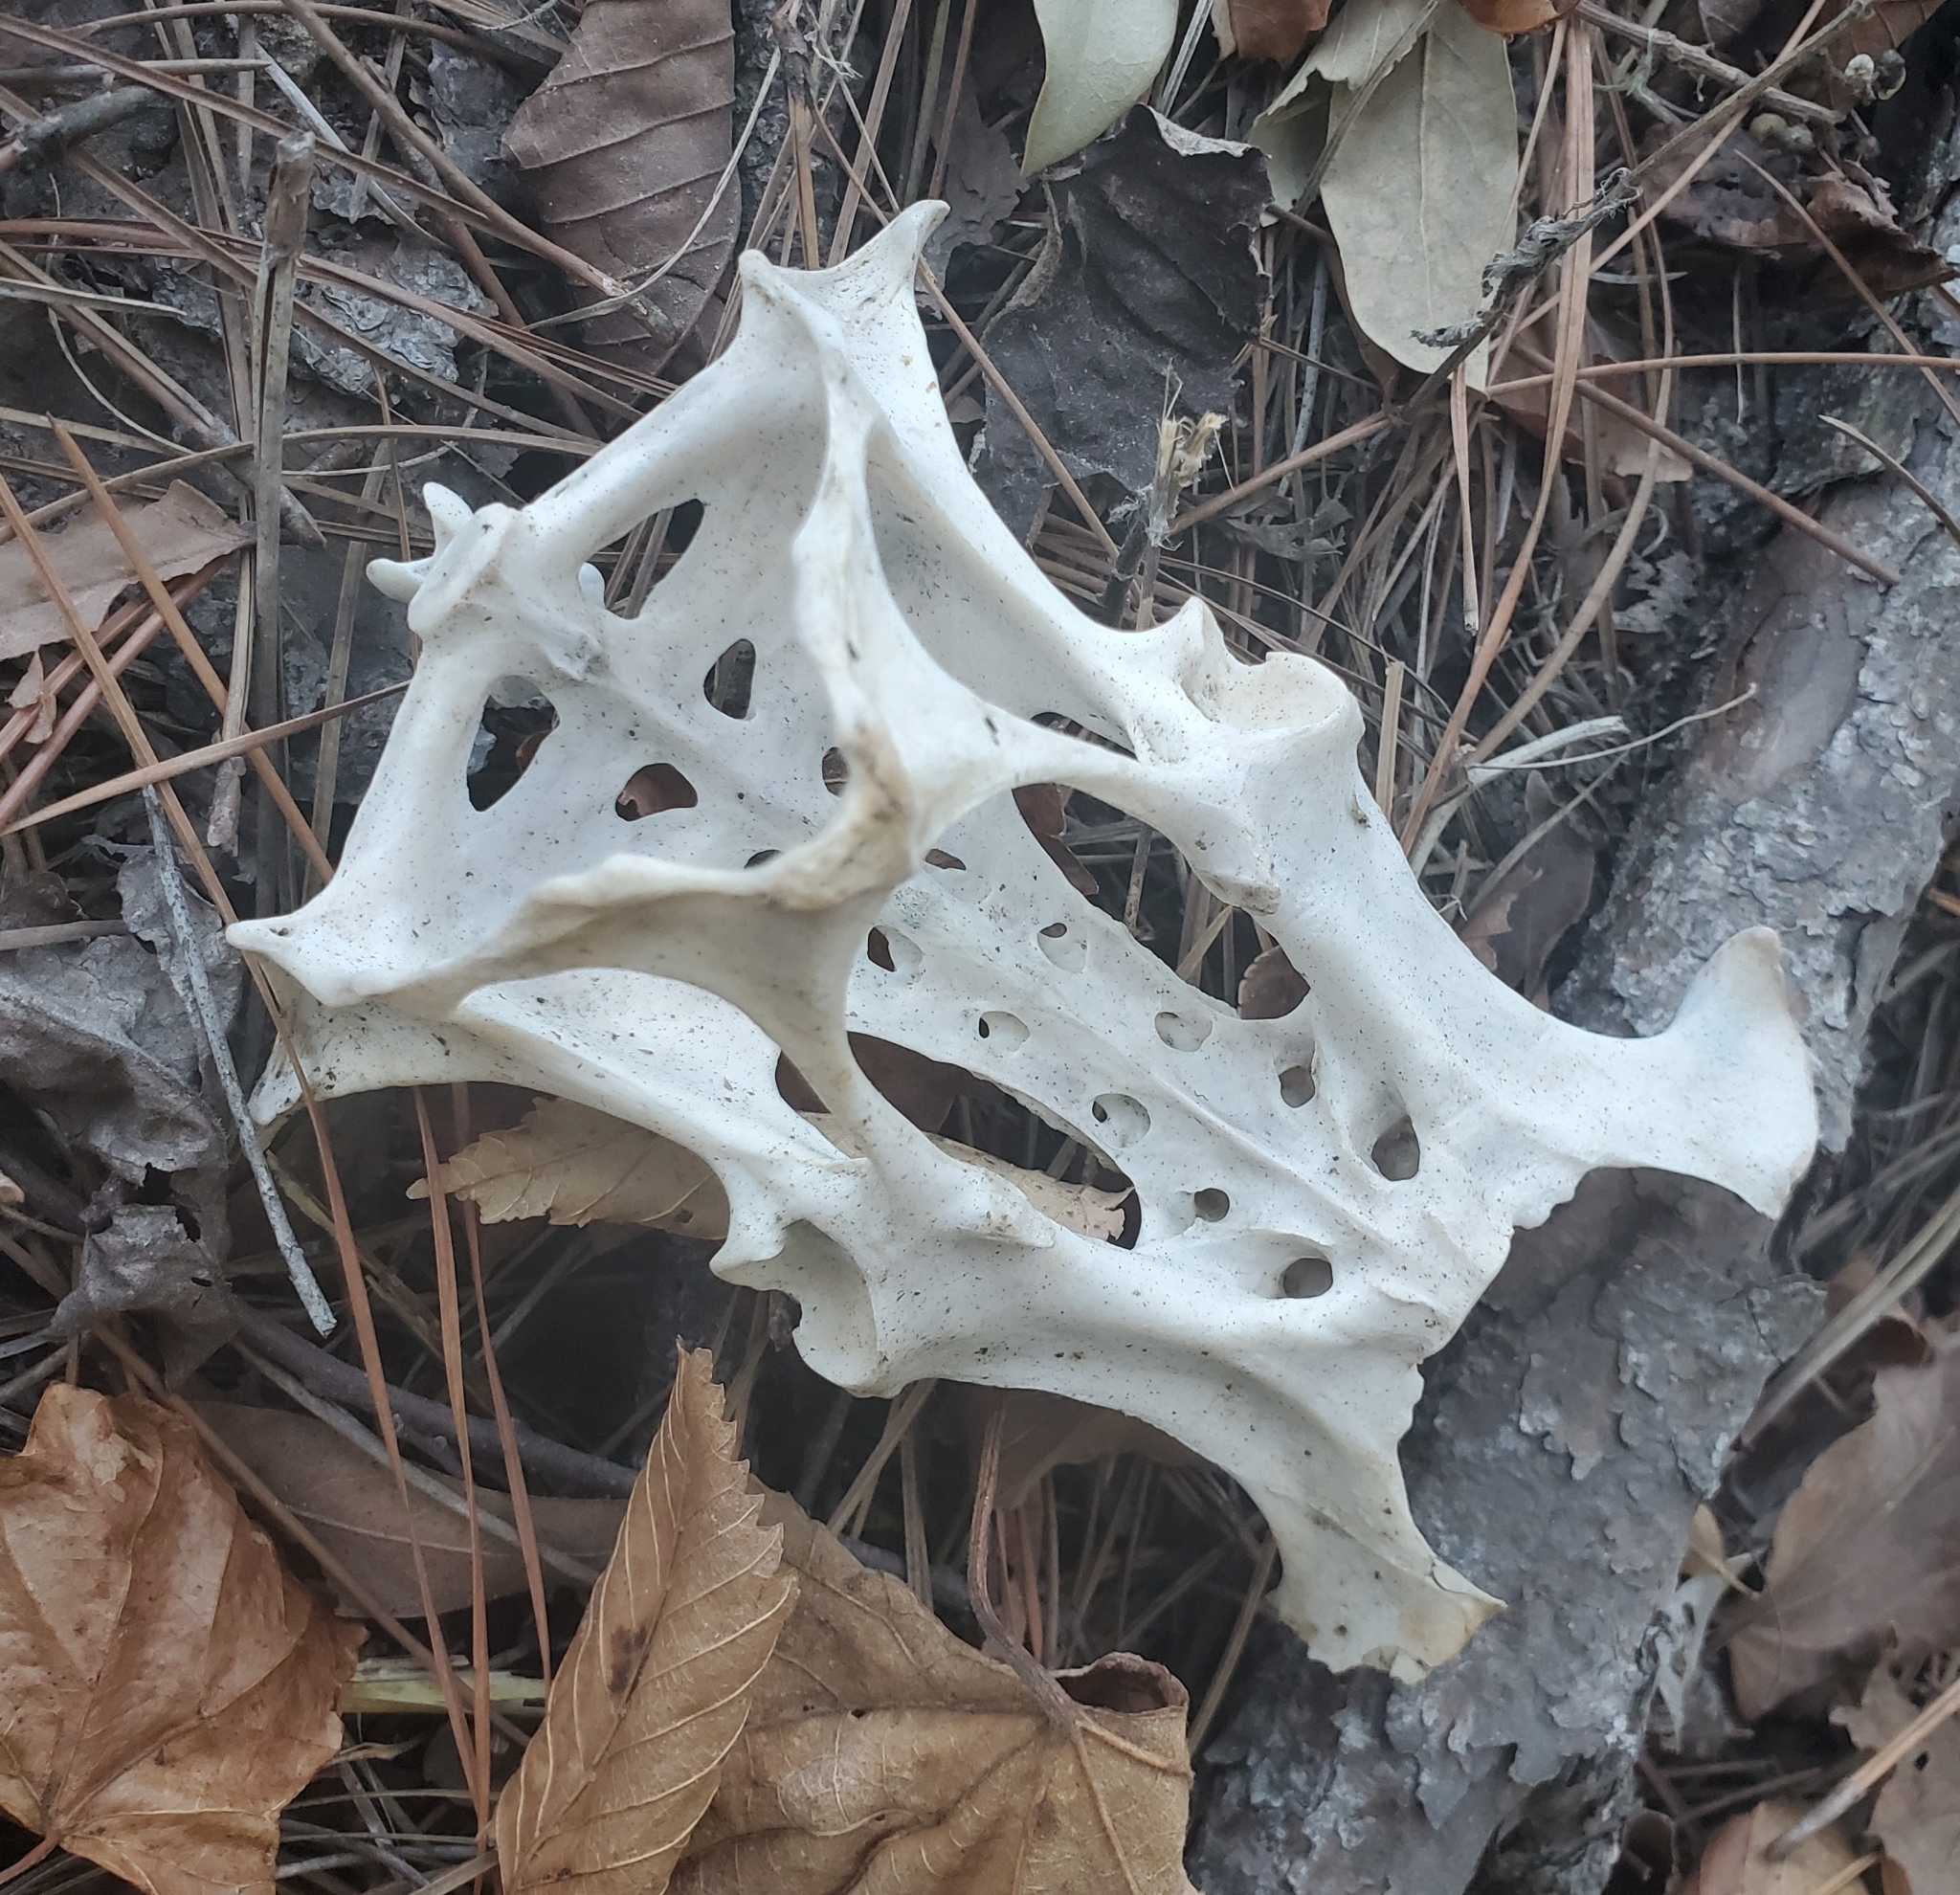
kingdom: Animalia
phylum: Chordata
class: Mammalia
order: Cingulata
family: Dasypodidae
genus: Dasypus
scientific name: Dasypus novemcinctus
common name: Nine-banded armadillo
